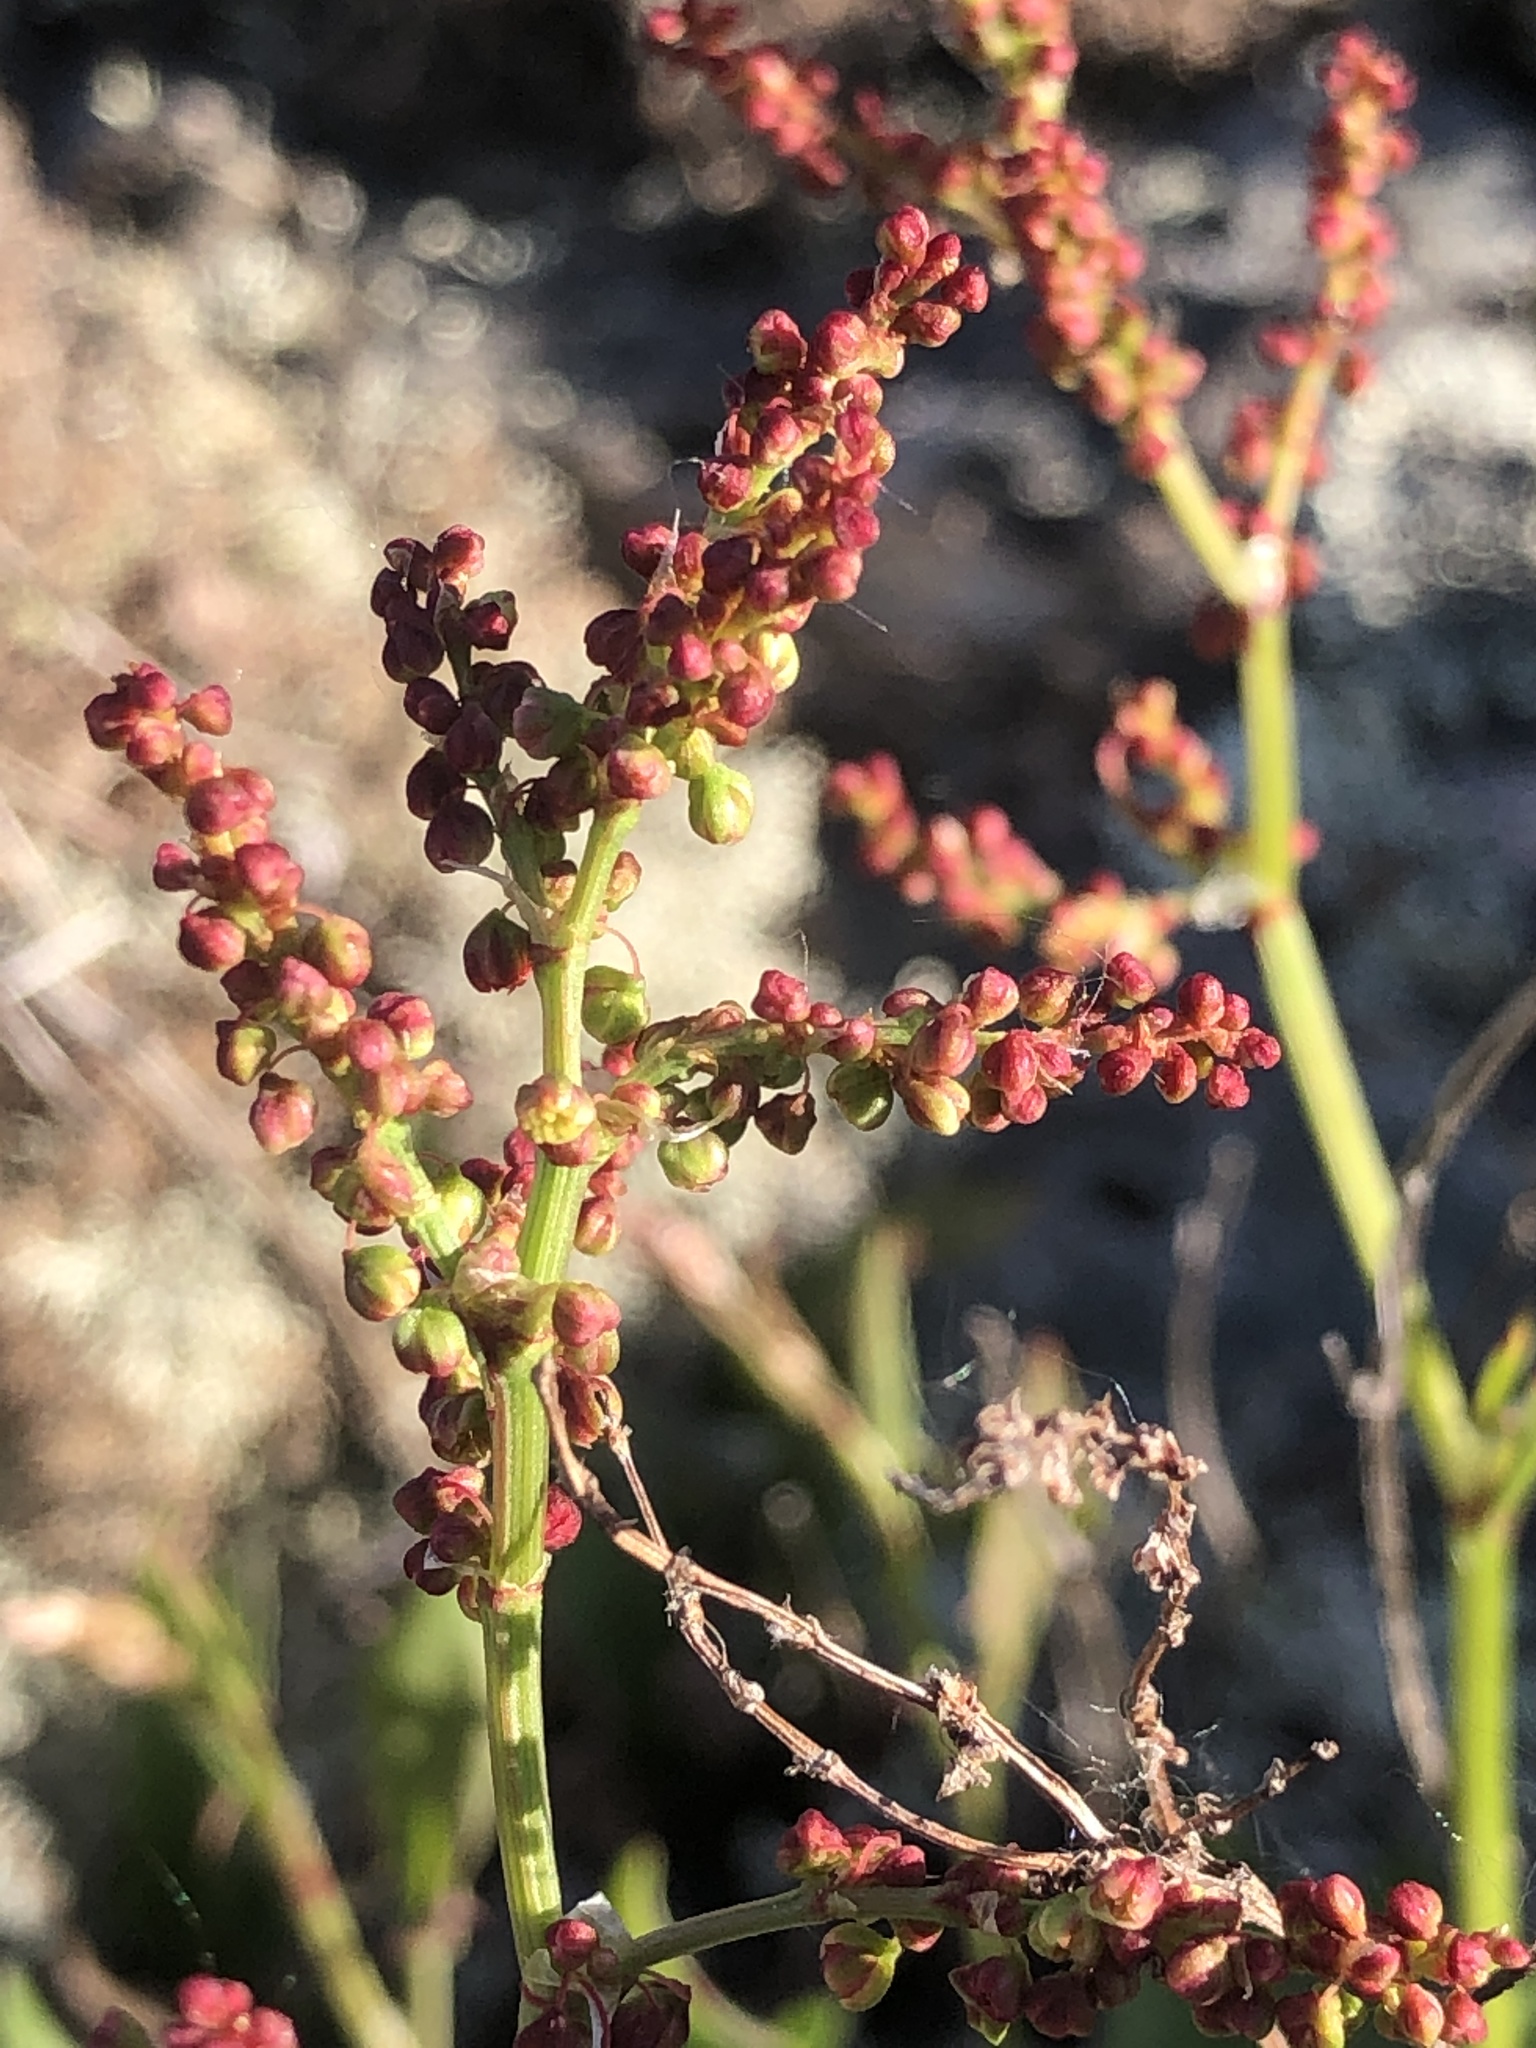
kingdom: Plantae
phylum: Tracheophyta
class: Magnoliopsida
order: Caryophyllales
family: Polygonaceae
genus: Rumex
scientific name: Rumex acetosella
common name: Common sheep sorrel
